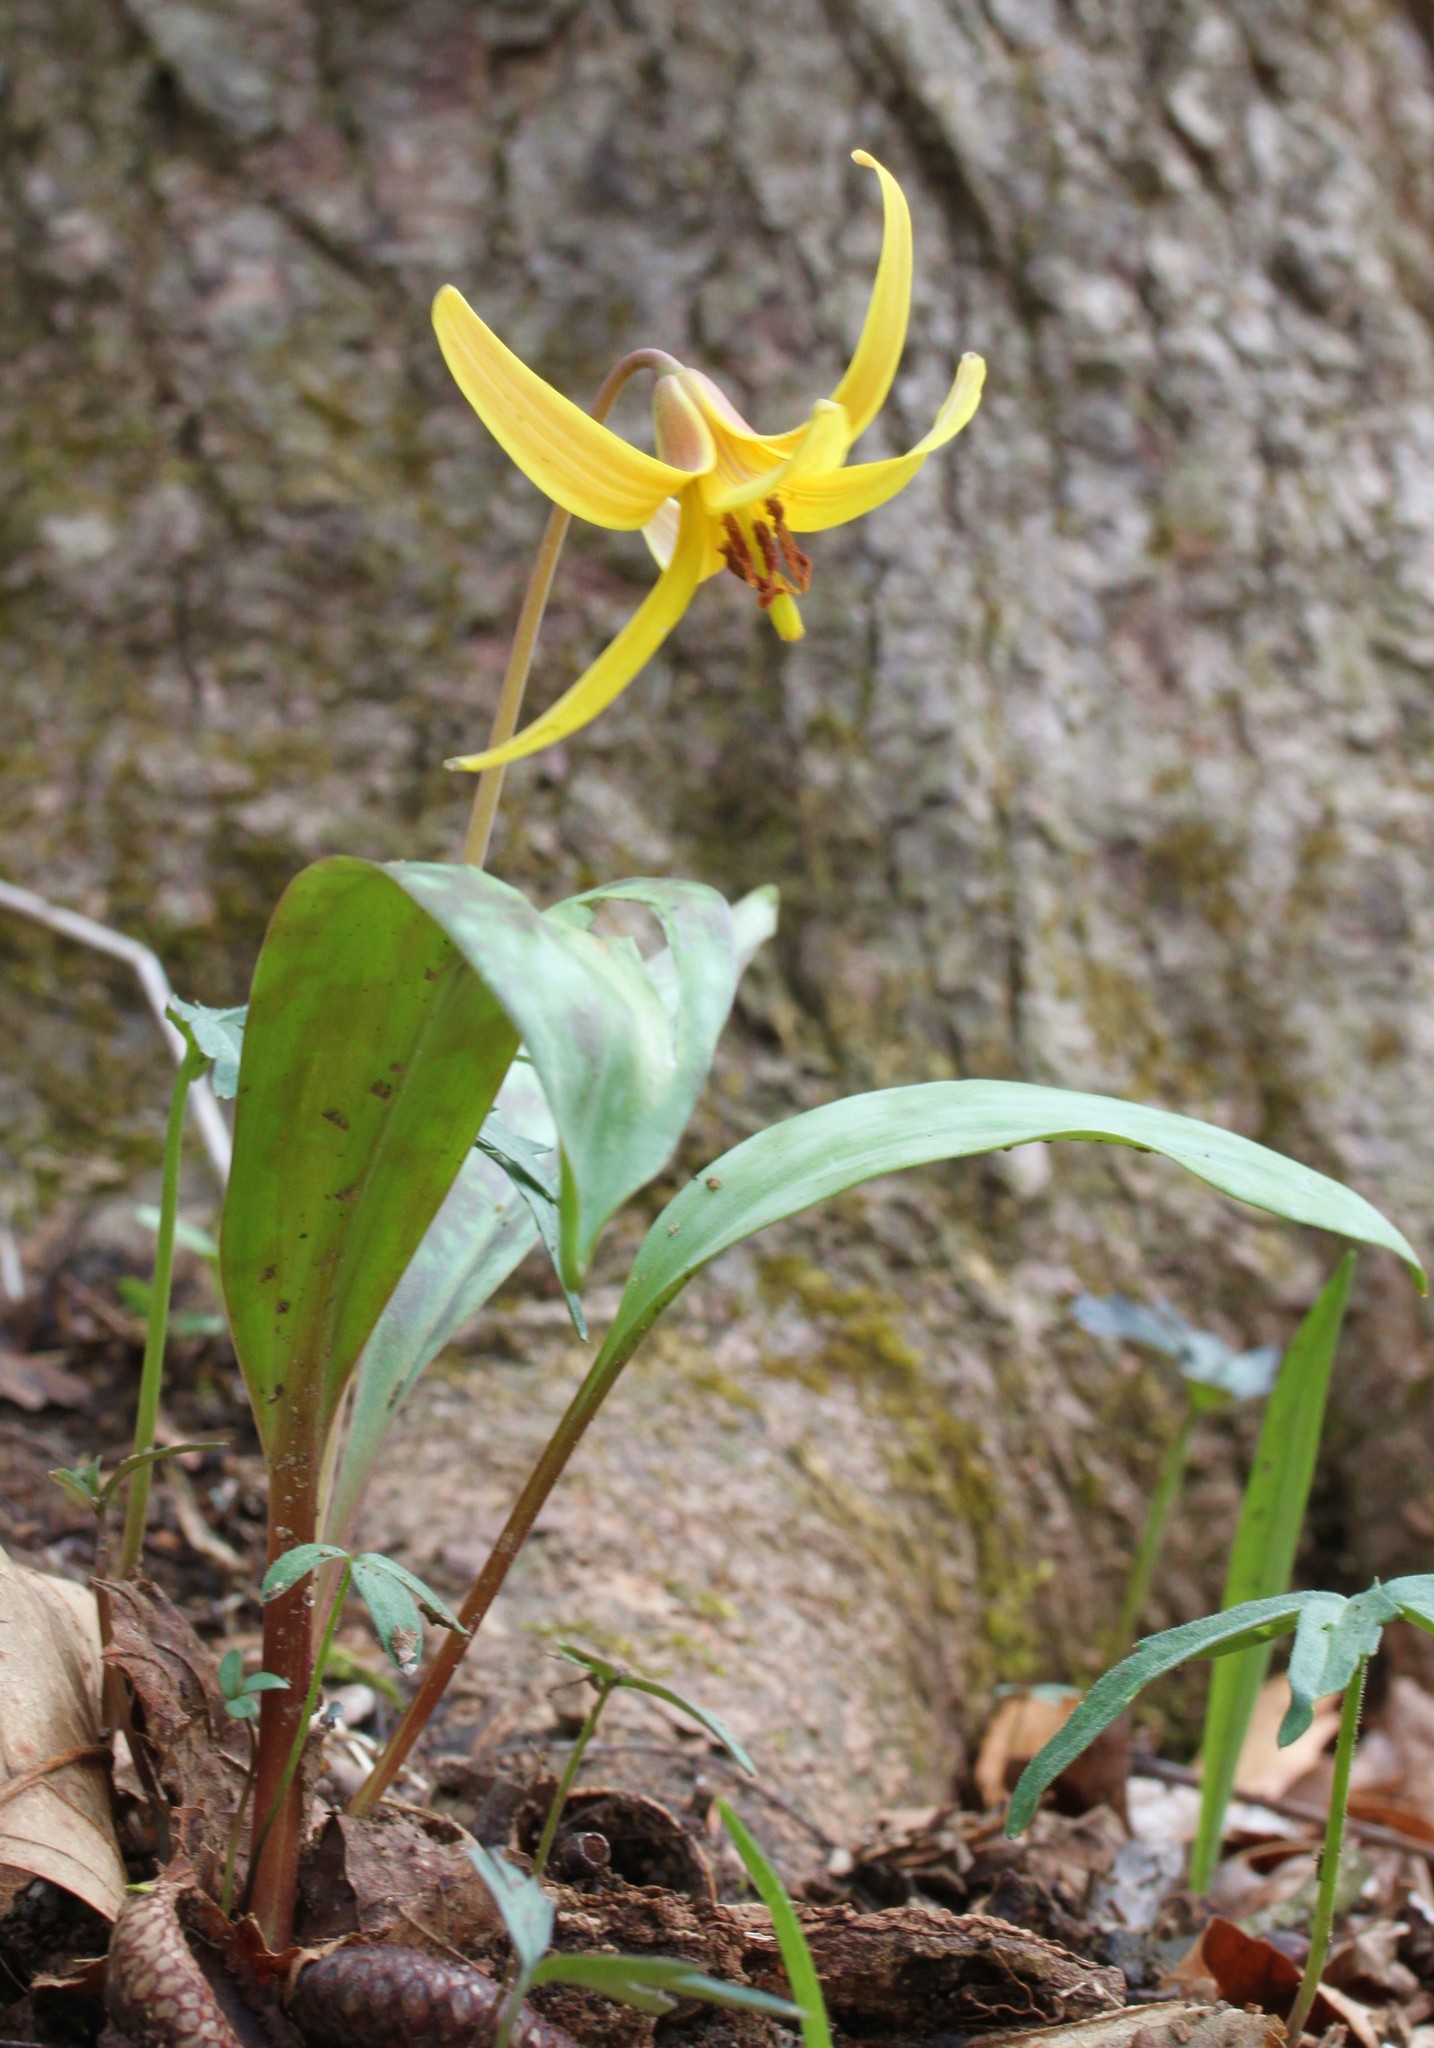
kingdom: Plantae
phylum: Tracheophyta
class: Liliopsida
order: Liliales
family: Liliaceae
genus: Erythronium
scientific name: Erythronium americanum
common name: Yellow adder's-tongue
